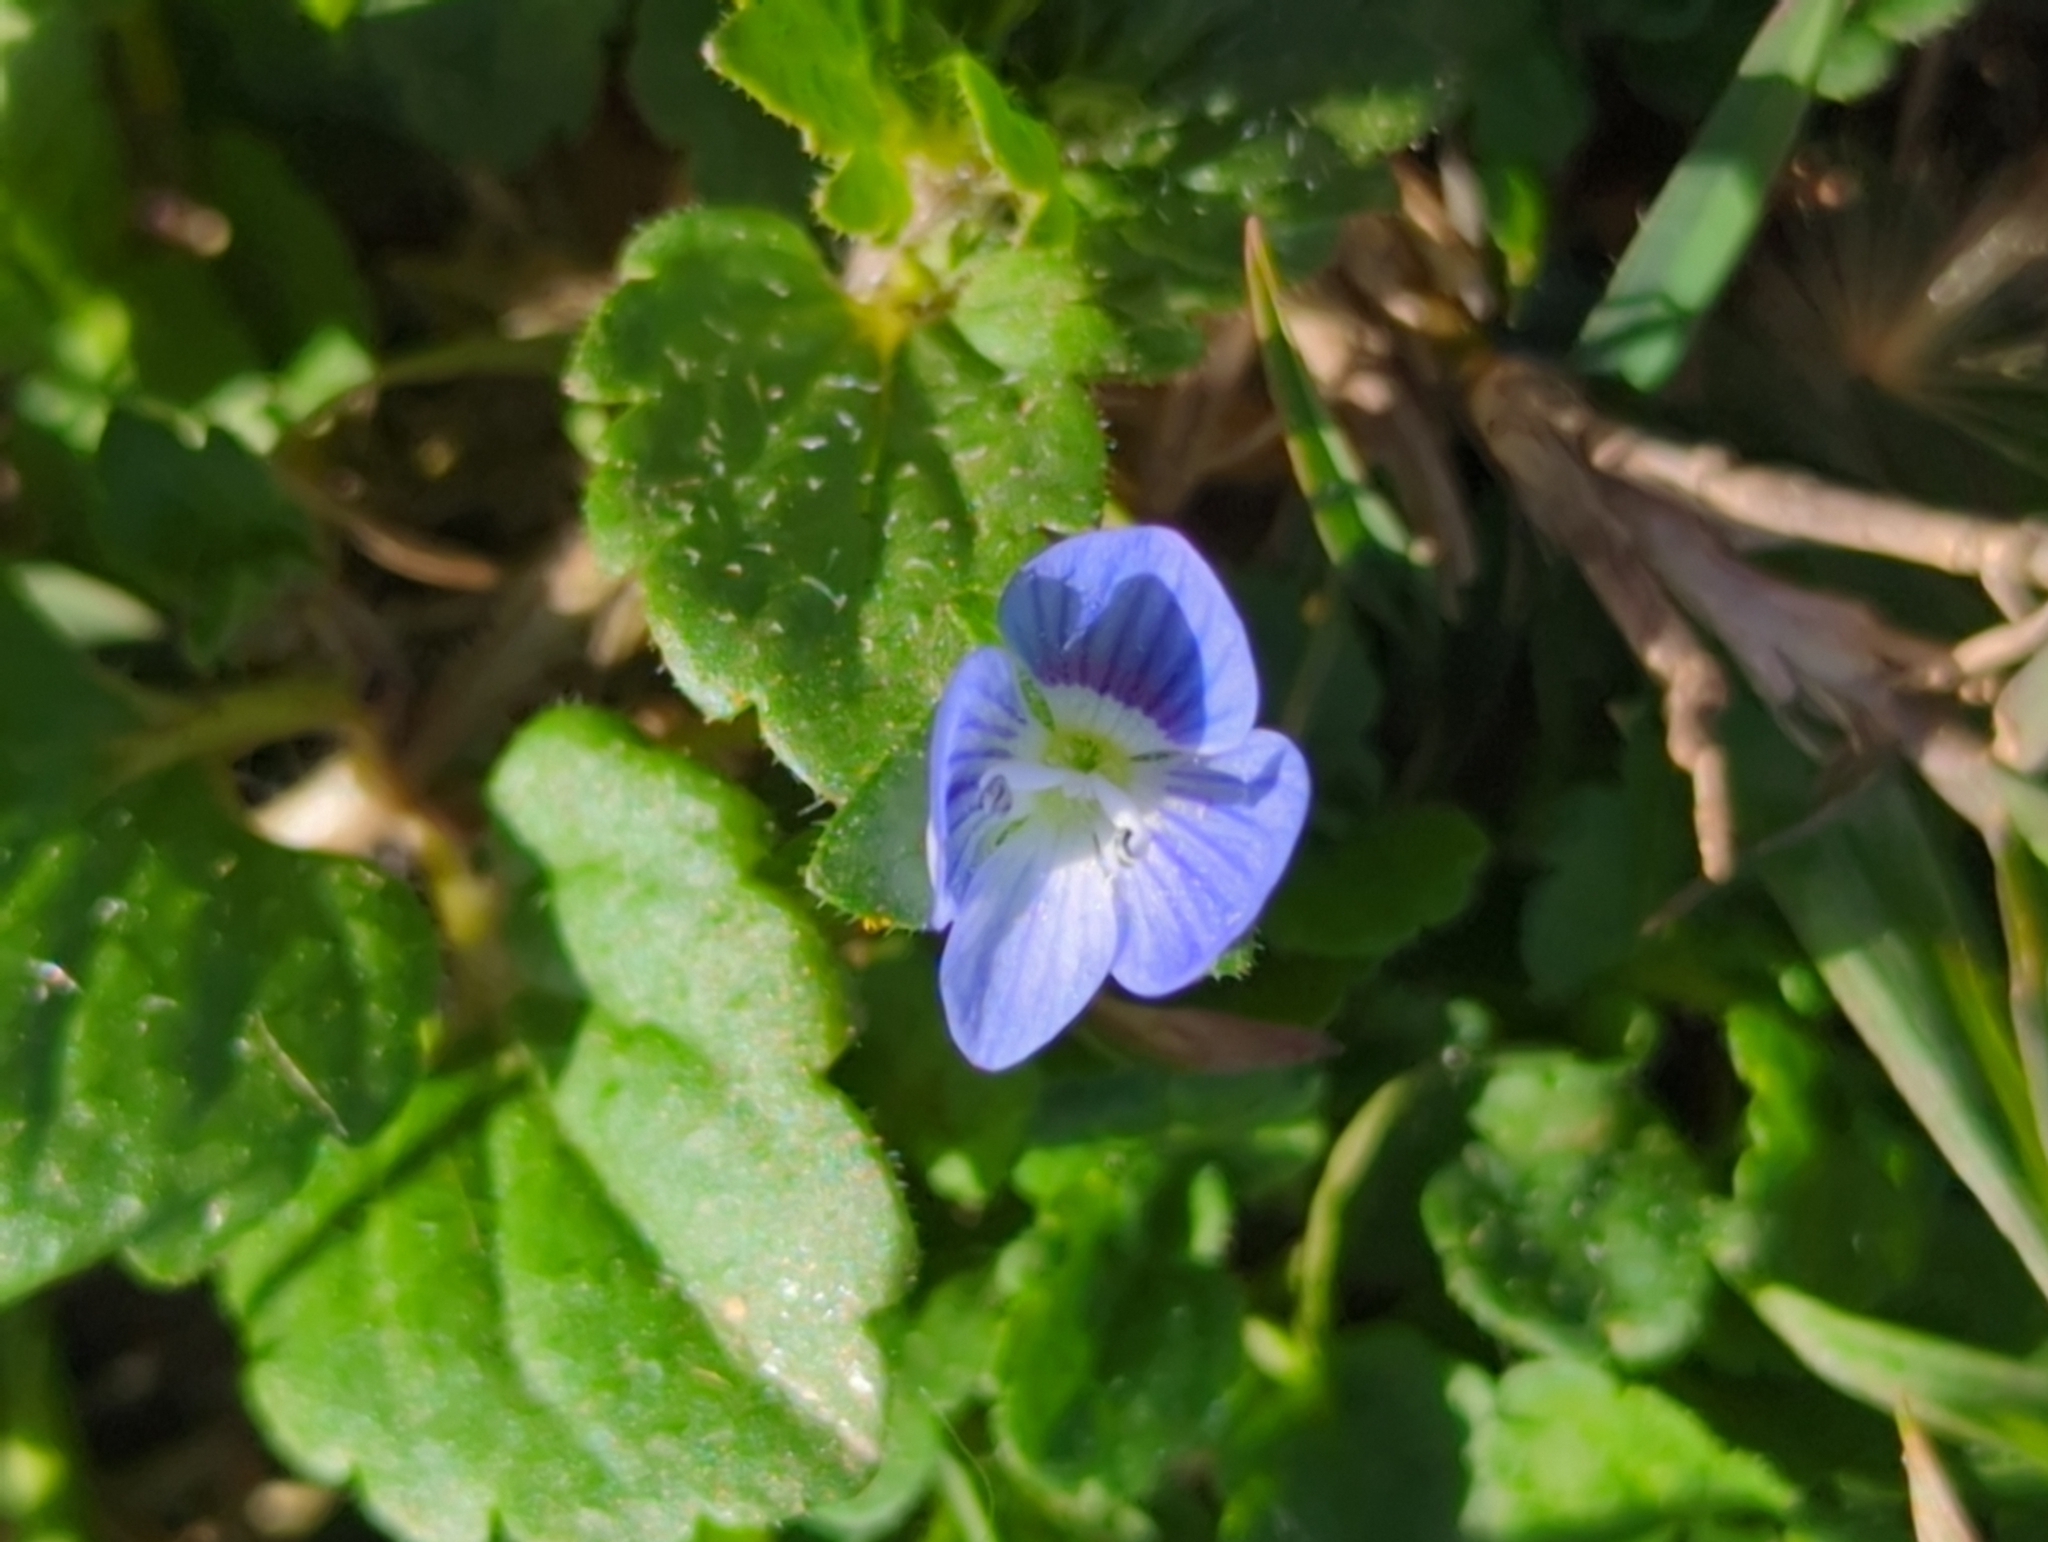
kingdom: Plantae
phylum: Tracheophyta
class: Magnoliopsida
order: Lamiales
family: Plantaginaceae
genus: Veronica
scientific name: Veronica persica
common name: Common field-speedwell
